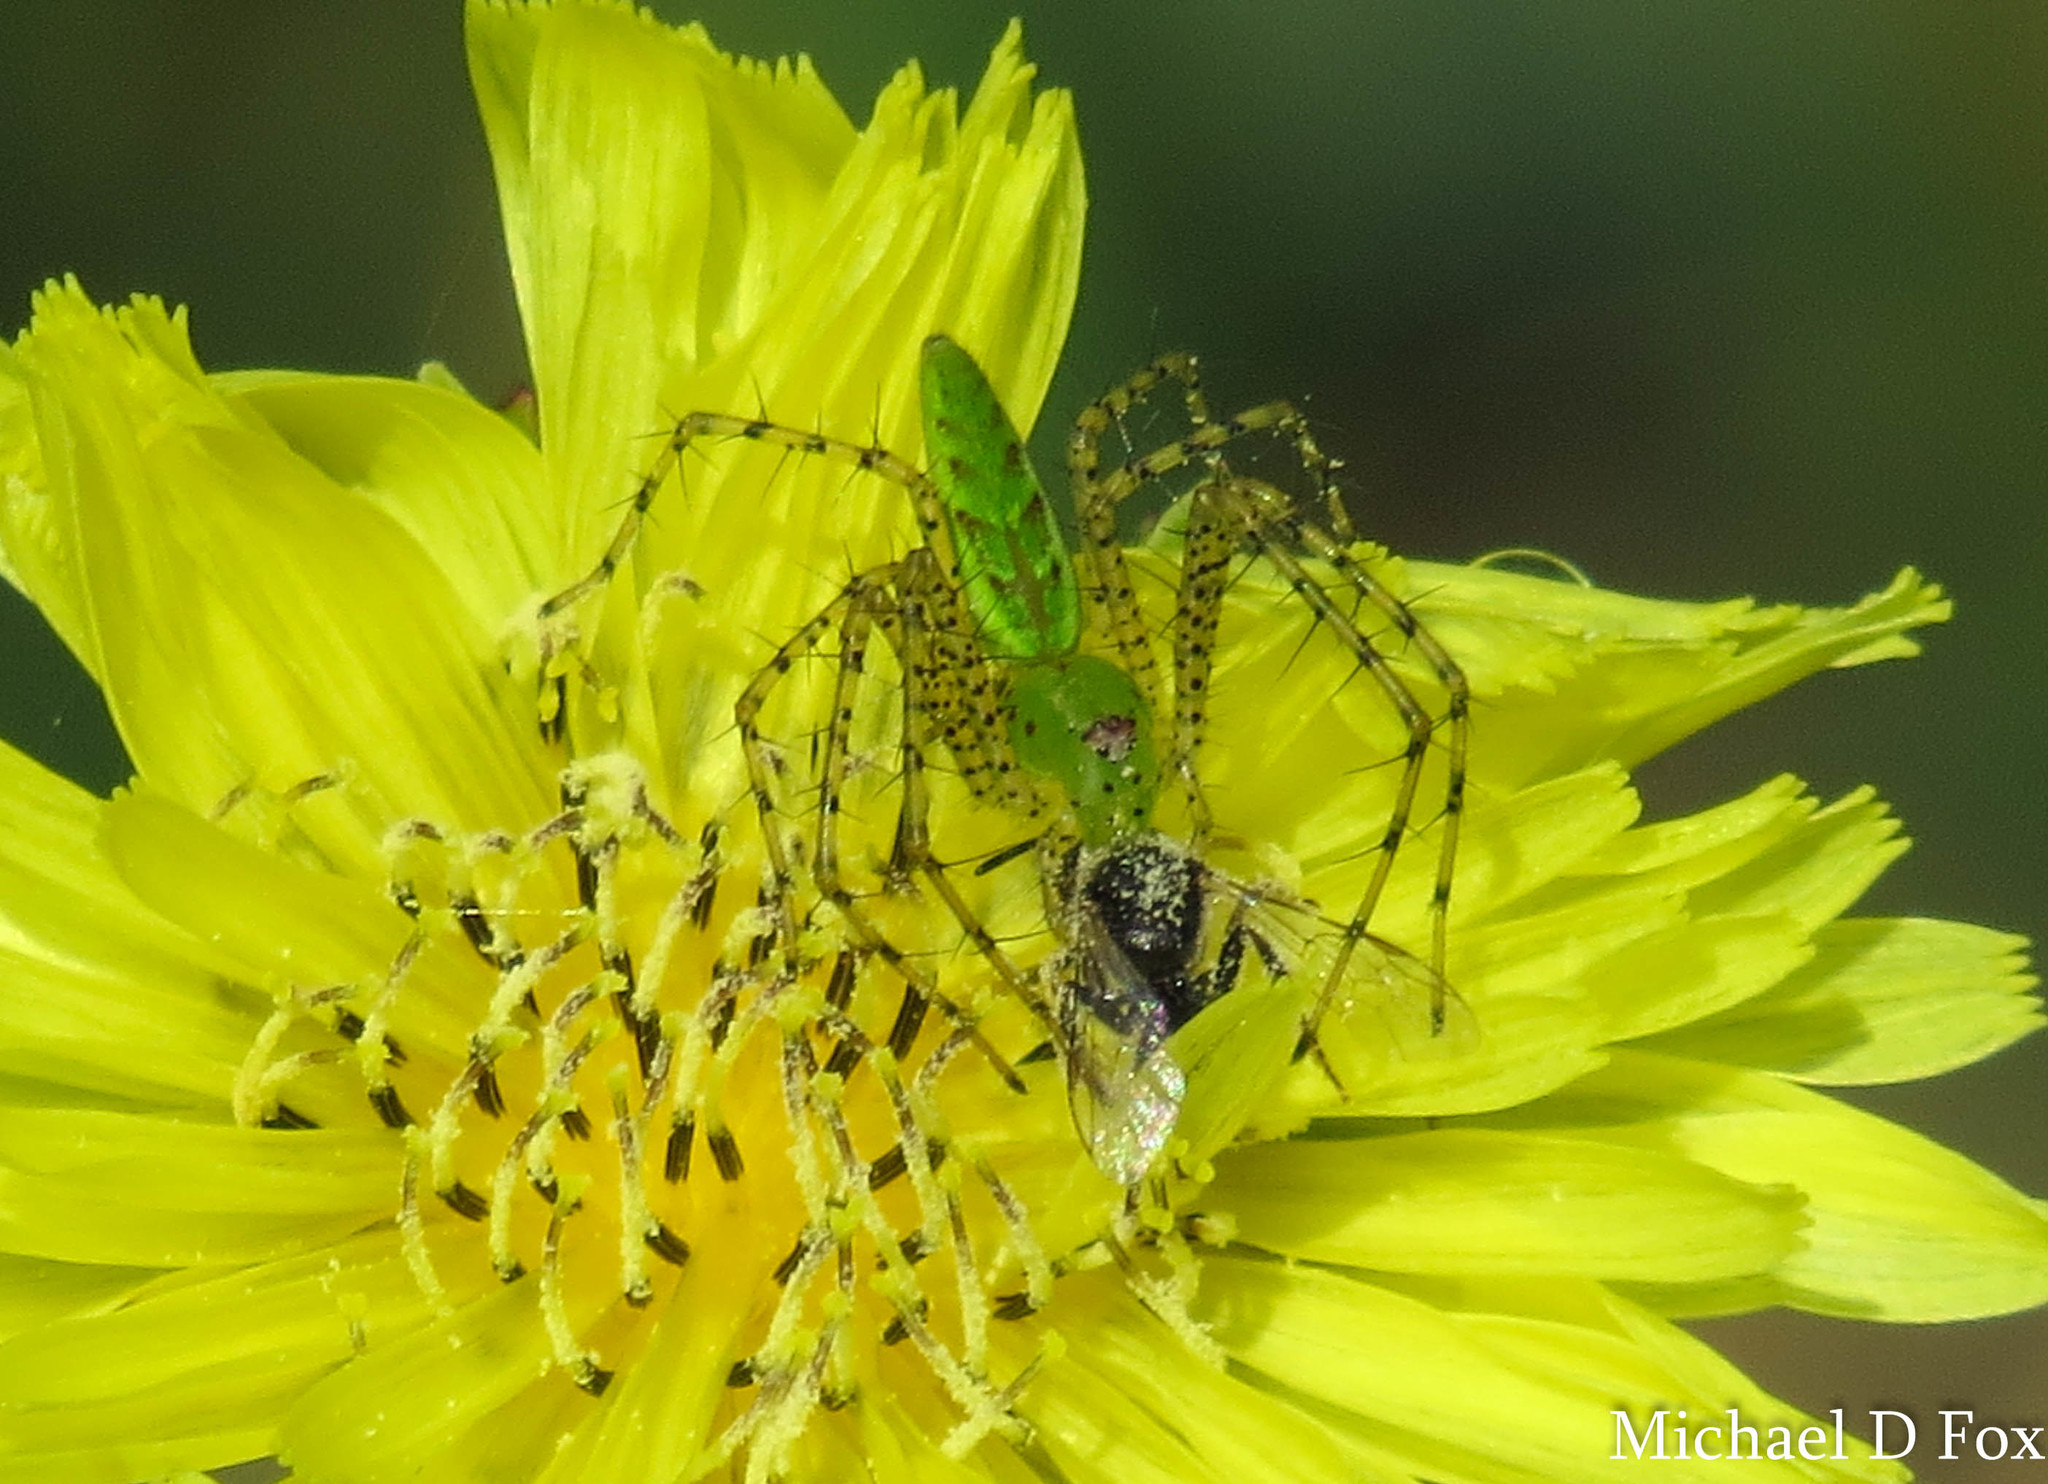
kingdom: Animalia
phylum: Arthropoda
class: Arachnida
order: Araneae
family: Oxyopidae
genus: Peucetia
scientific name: Peucetia viridans
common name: Lynx spiders
